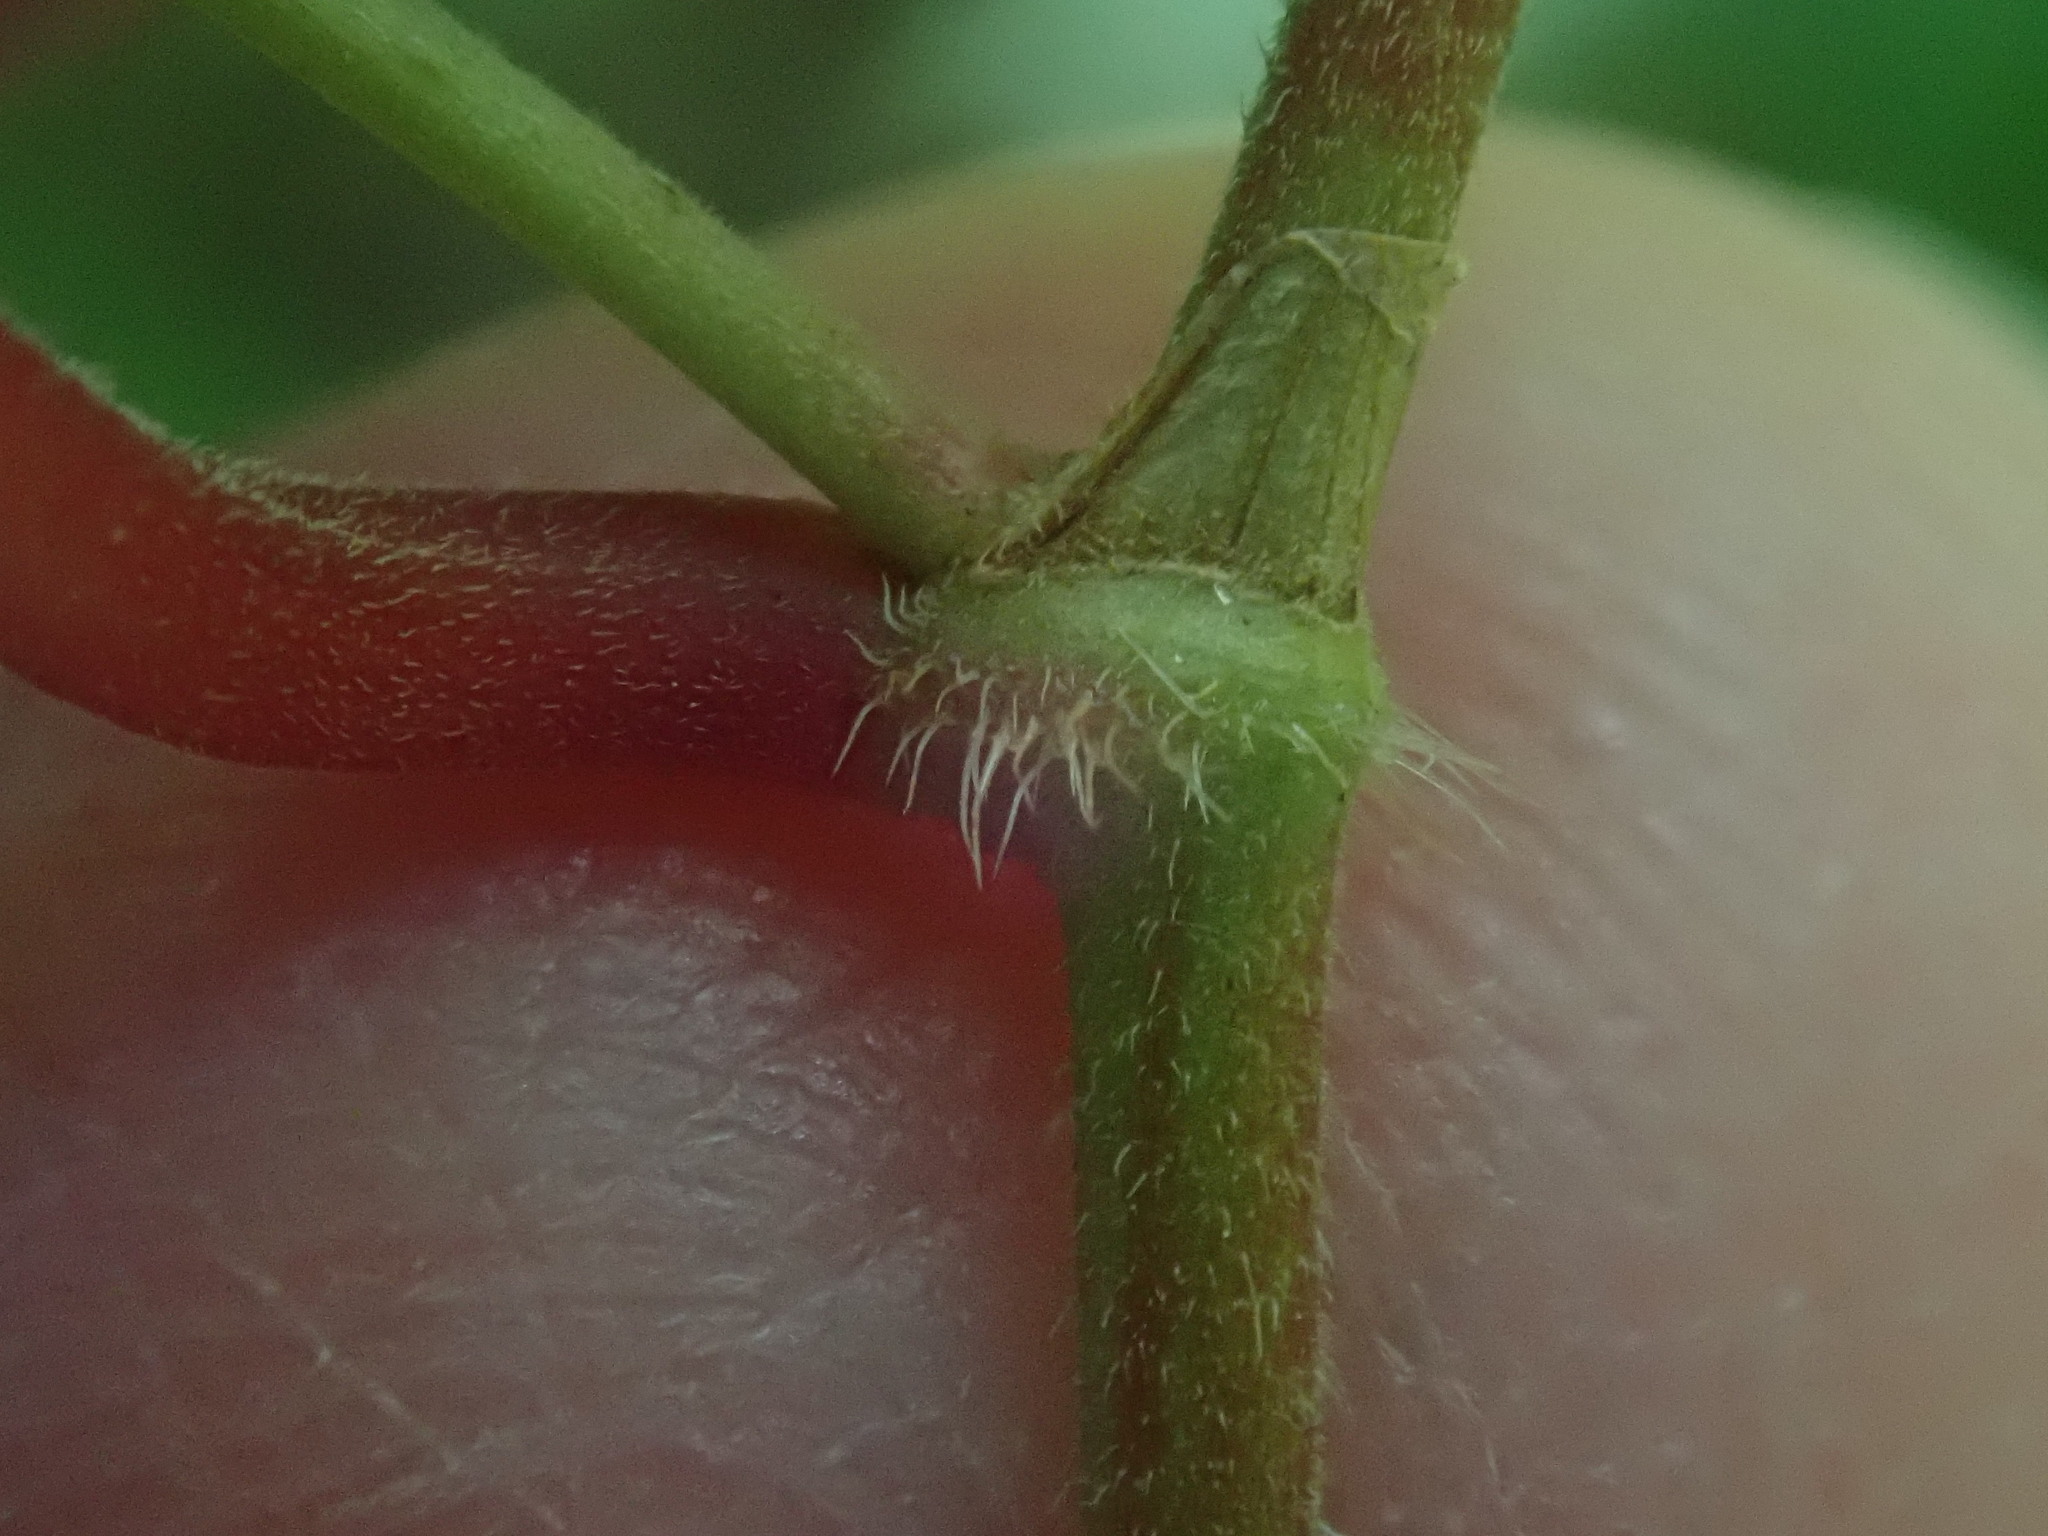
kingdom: Plantae
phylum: Tracheophyta
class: Magnoliopsida
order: Caryophyllales
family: Polygonaceae
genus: Parogonum
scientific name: Parogonum ciliinode
